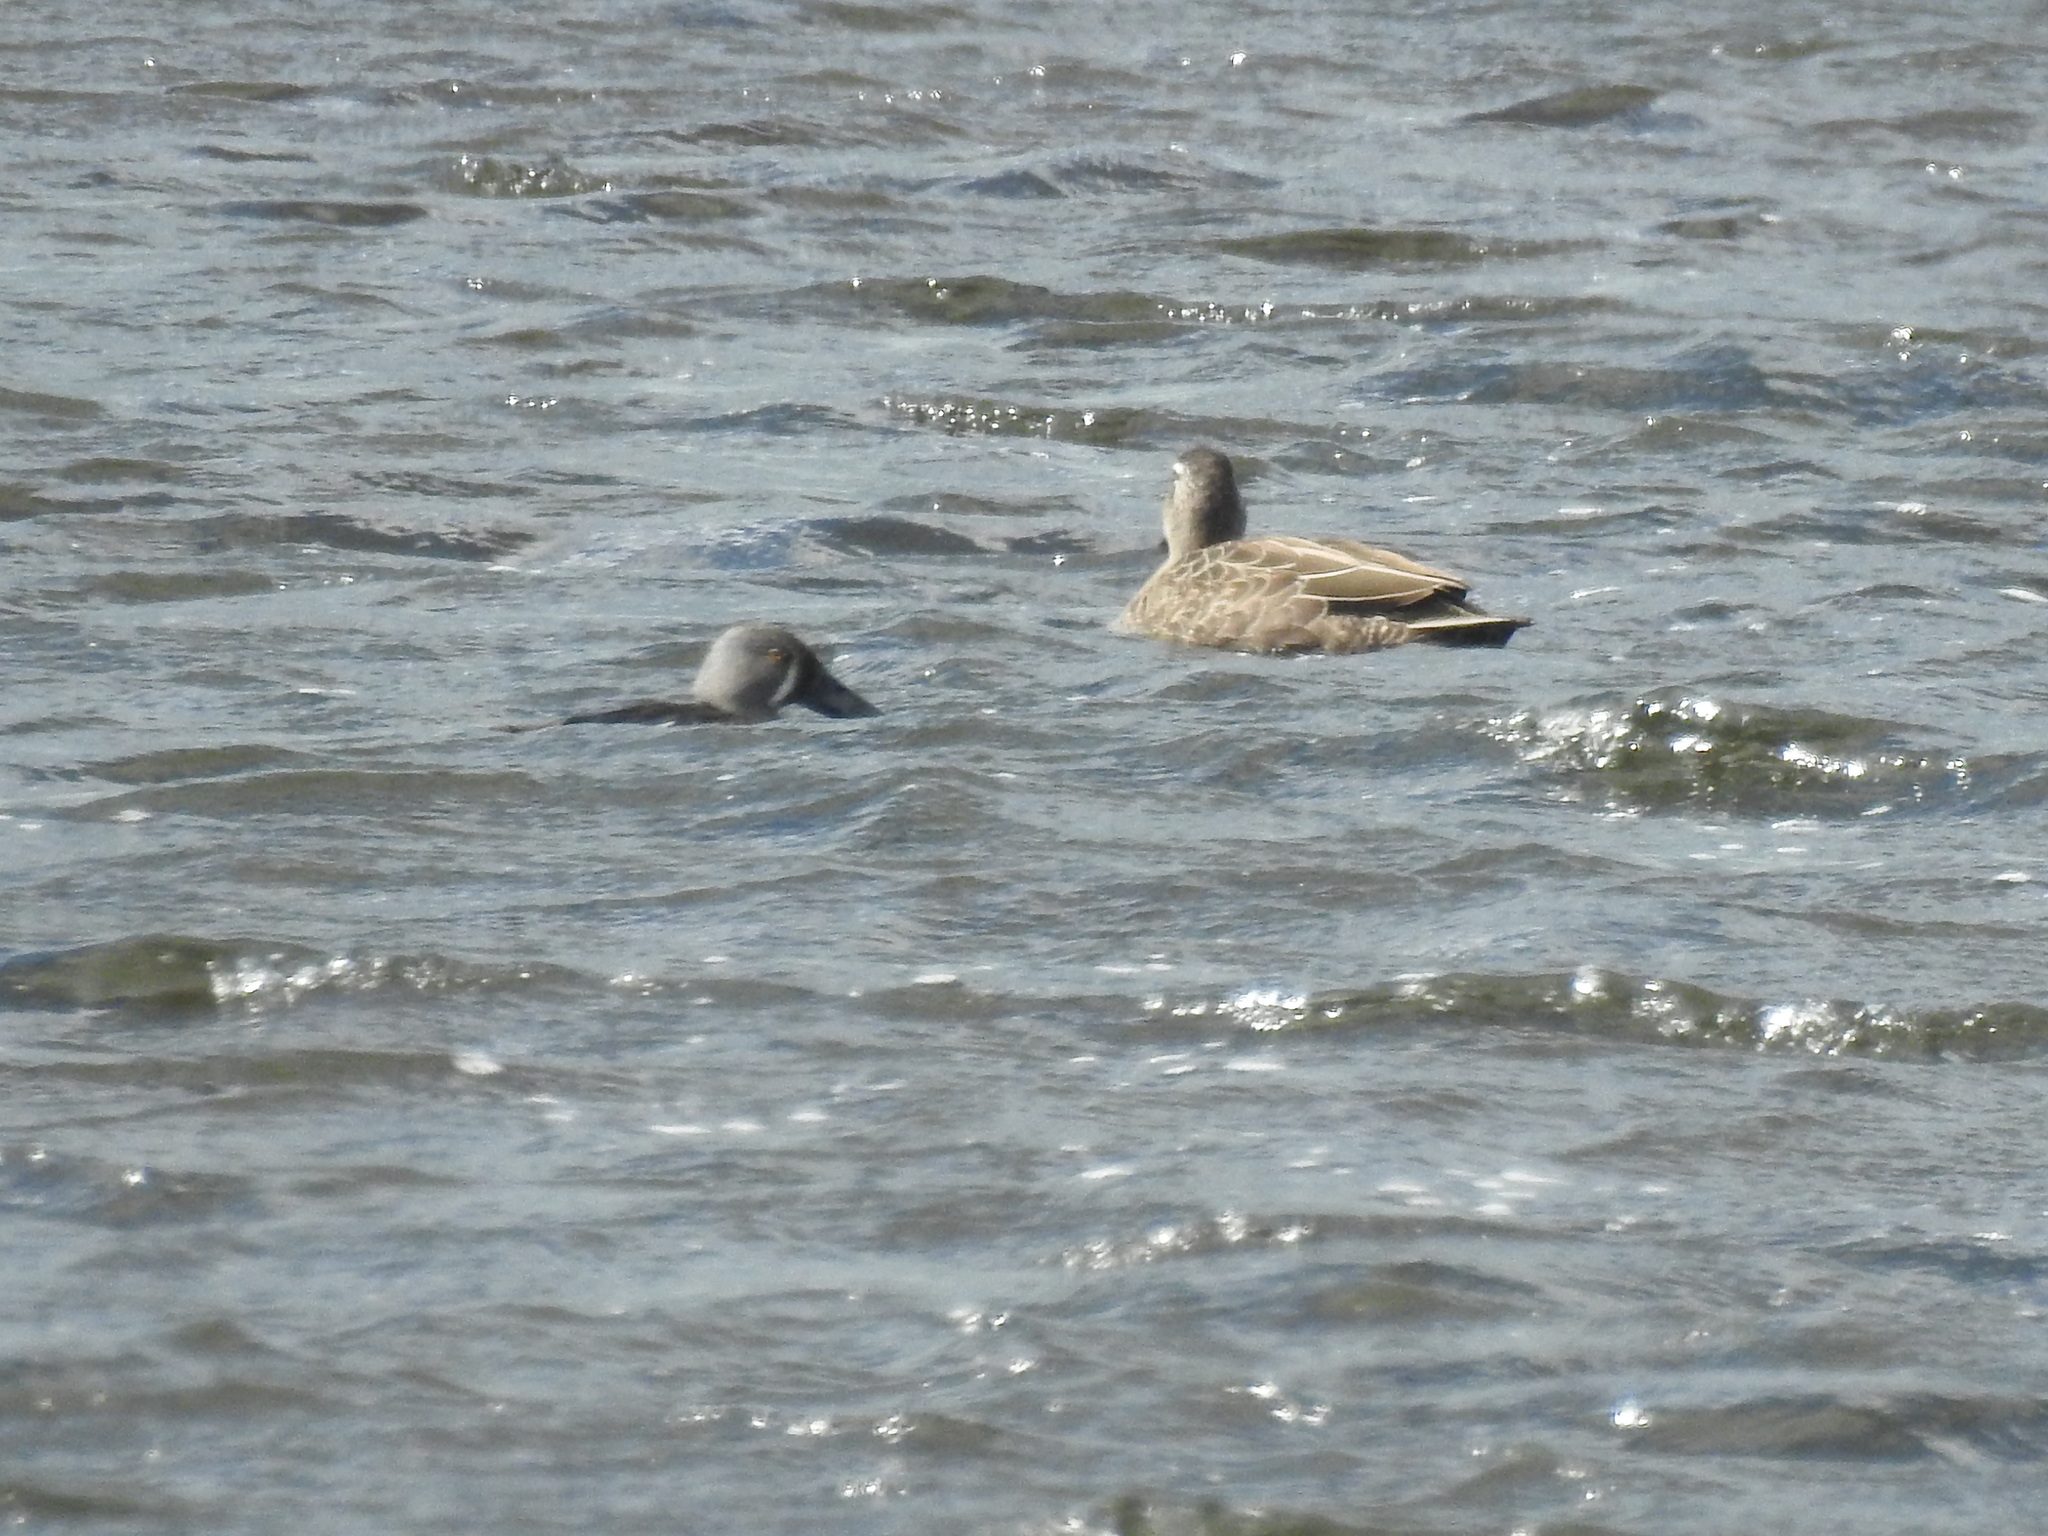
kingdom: Animalia
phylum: Chordata
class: Aves
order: Anseriformes
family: Anatidae
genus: Spatula
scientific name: Spatula rhynchotis
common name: Australian shoveler
